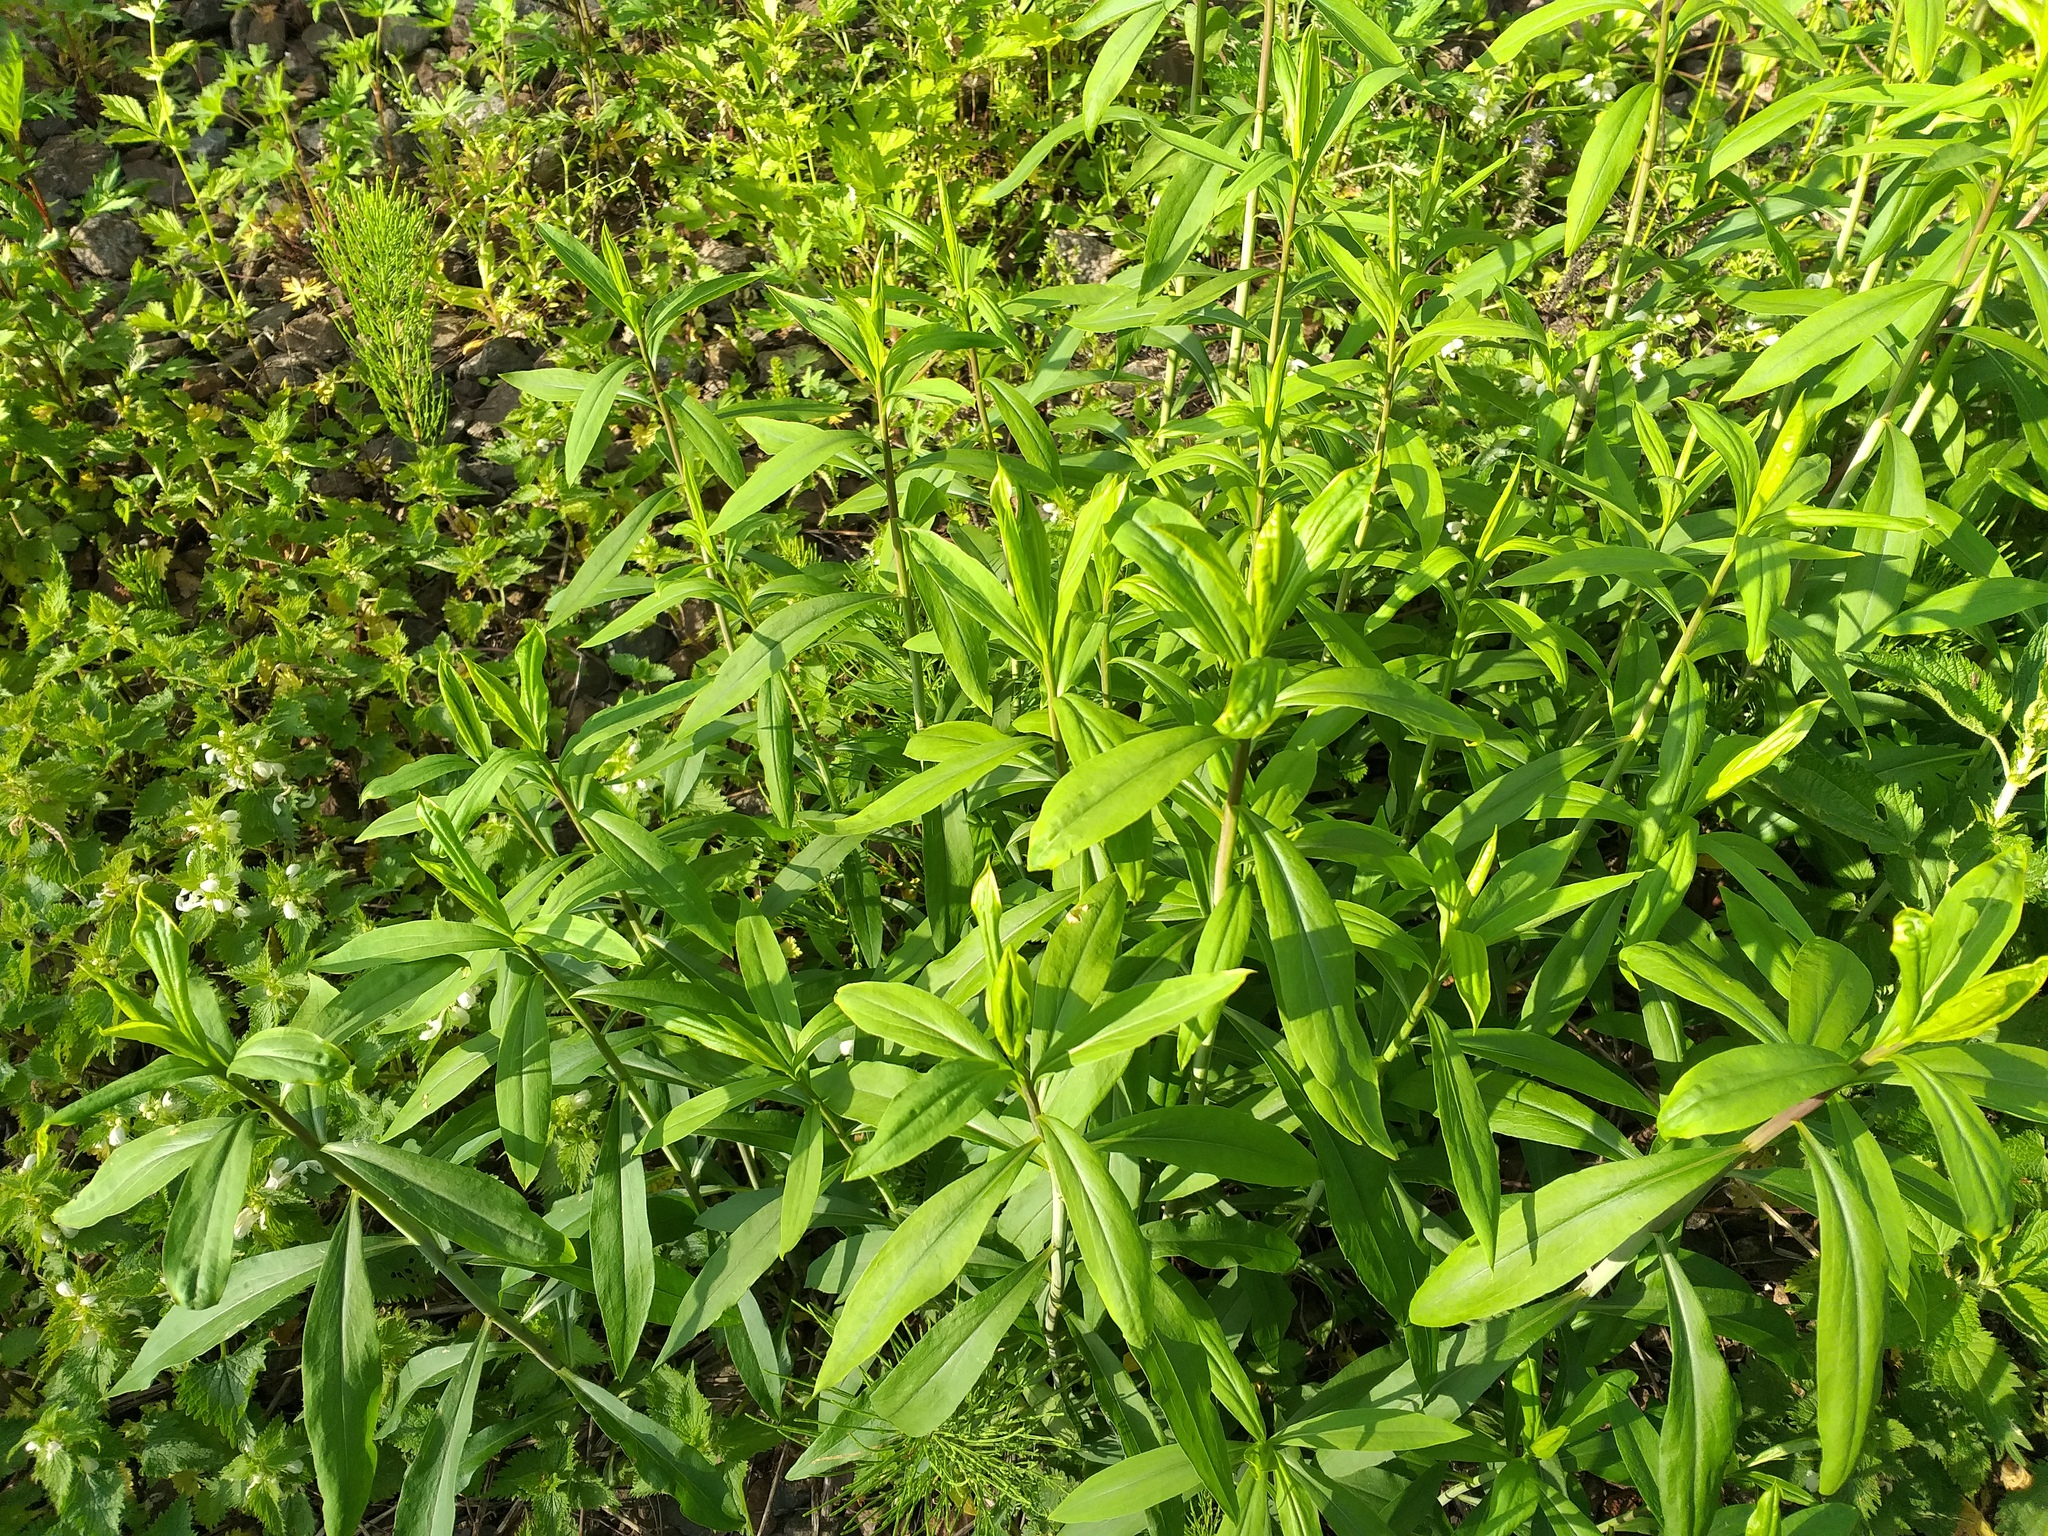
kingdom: Plantae
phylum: Tracheophyta
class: Magnoliopsida
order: Asterales
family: Asteraceae
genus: Solidago
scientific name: Solidago gigantea
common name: Giant goldenrod
